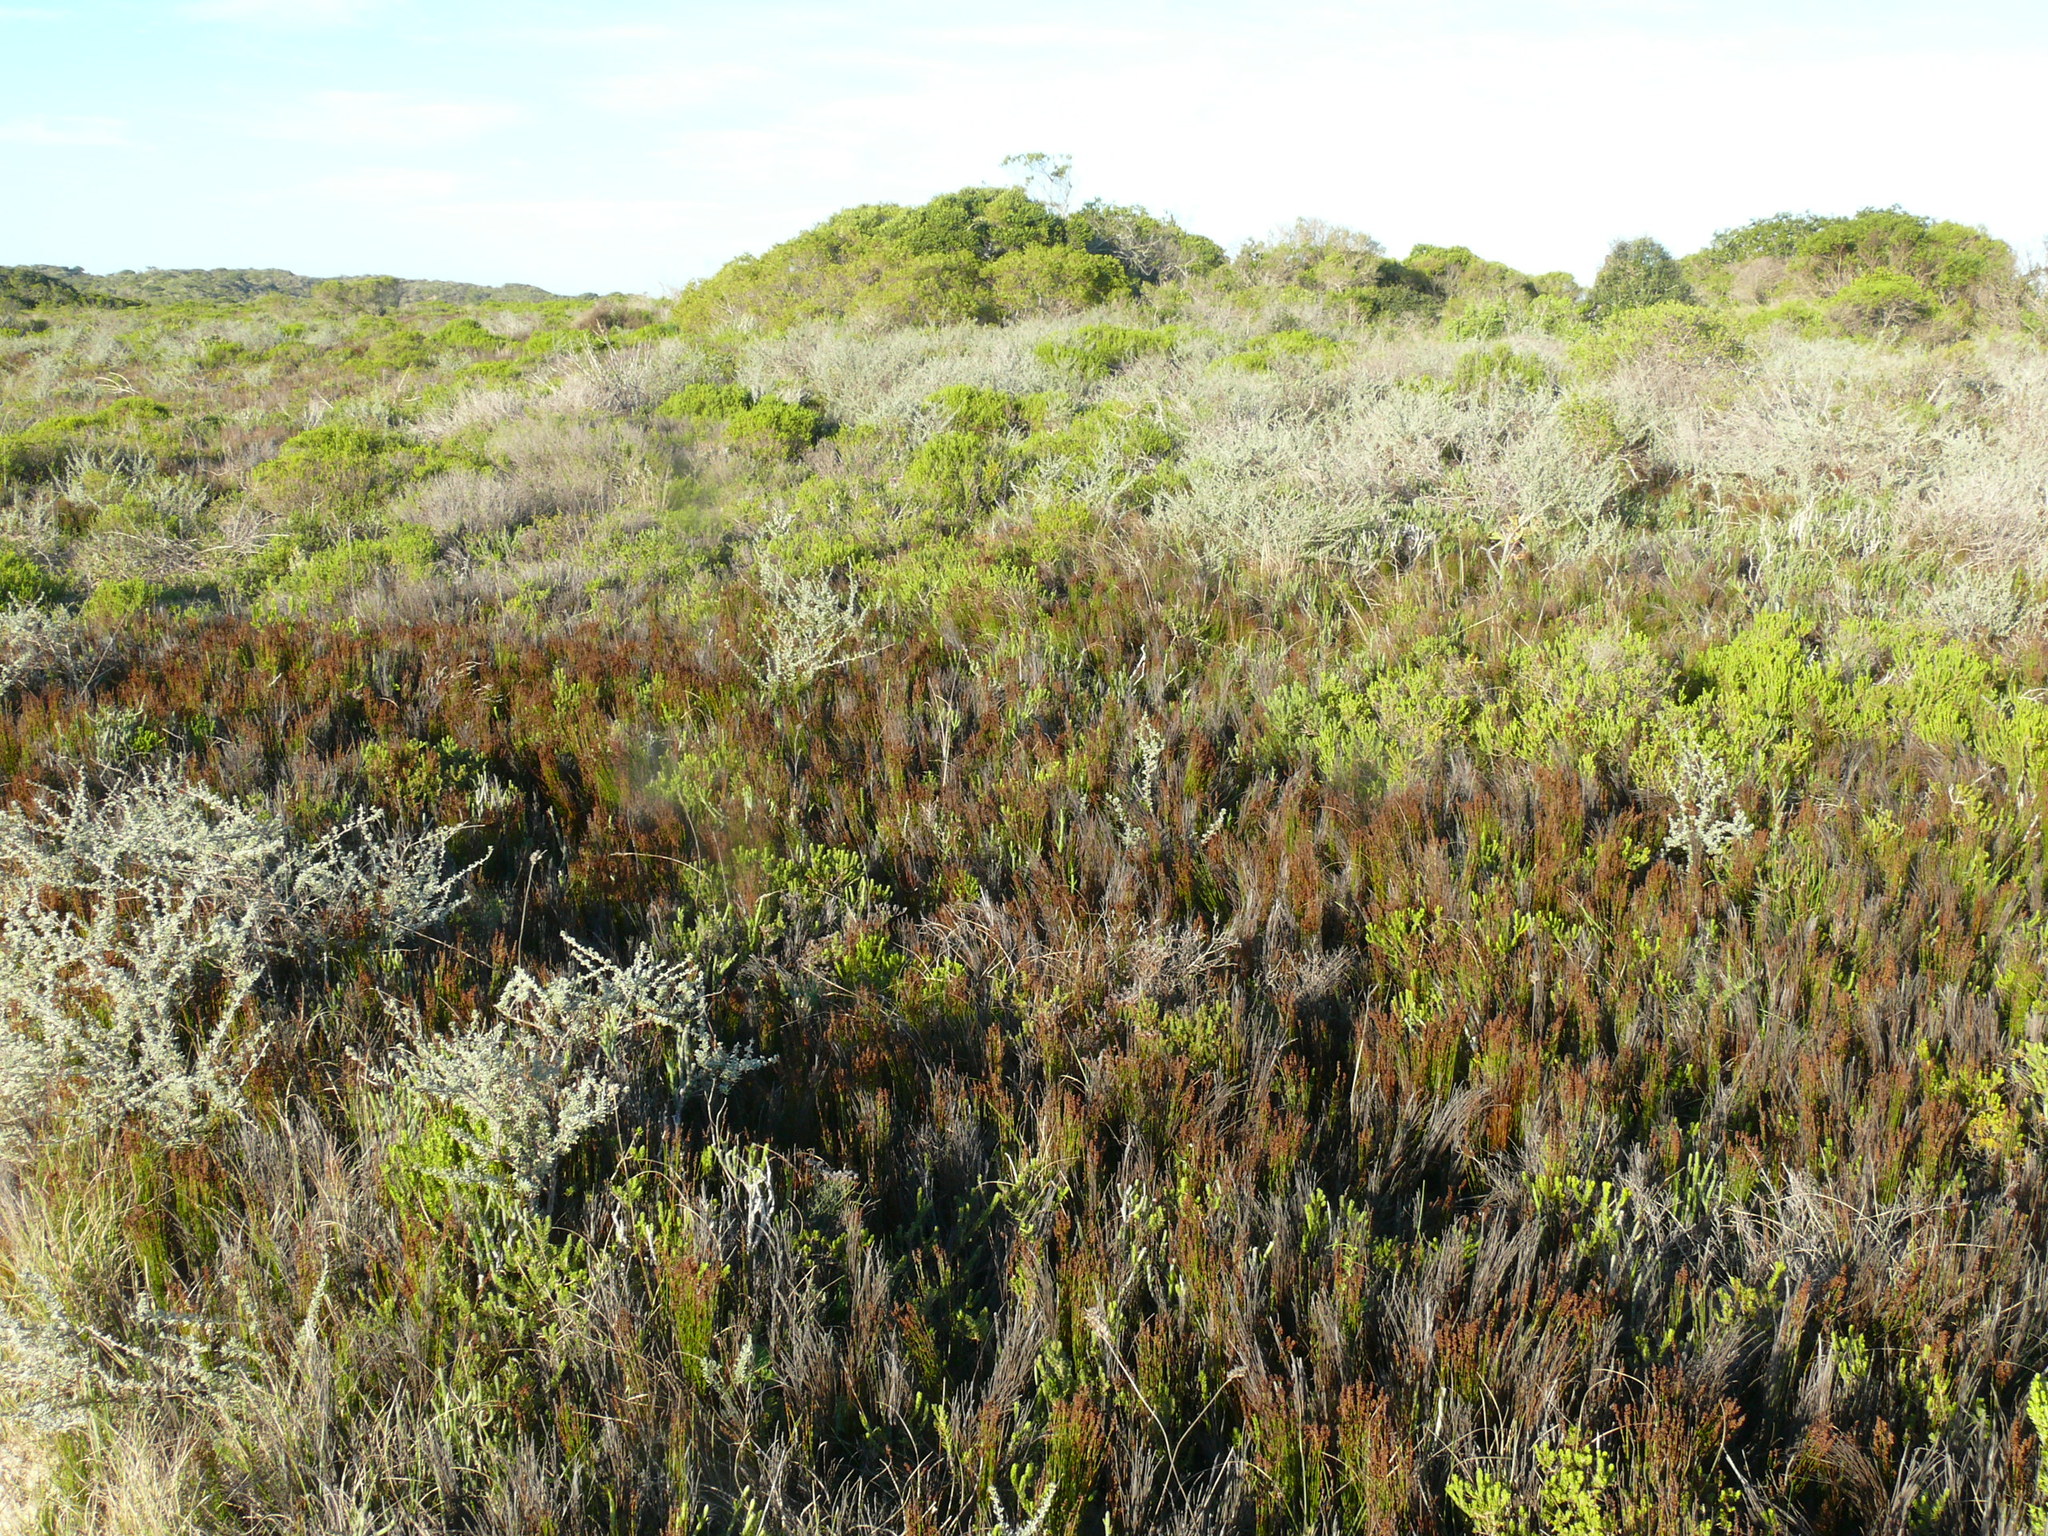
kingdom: Plantae
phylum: Tracheophyta
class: Liliopsida
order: Poales
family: Restionaceae
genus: Elegia
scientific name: Elegia microcarpa
